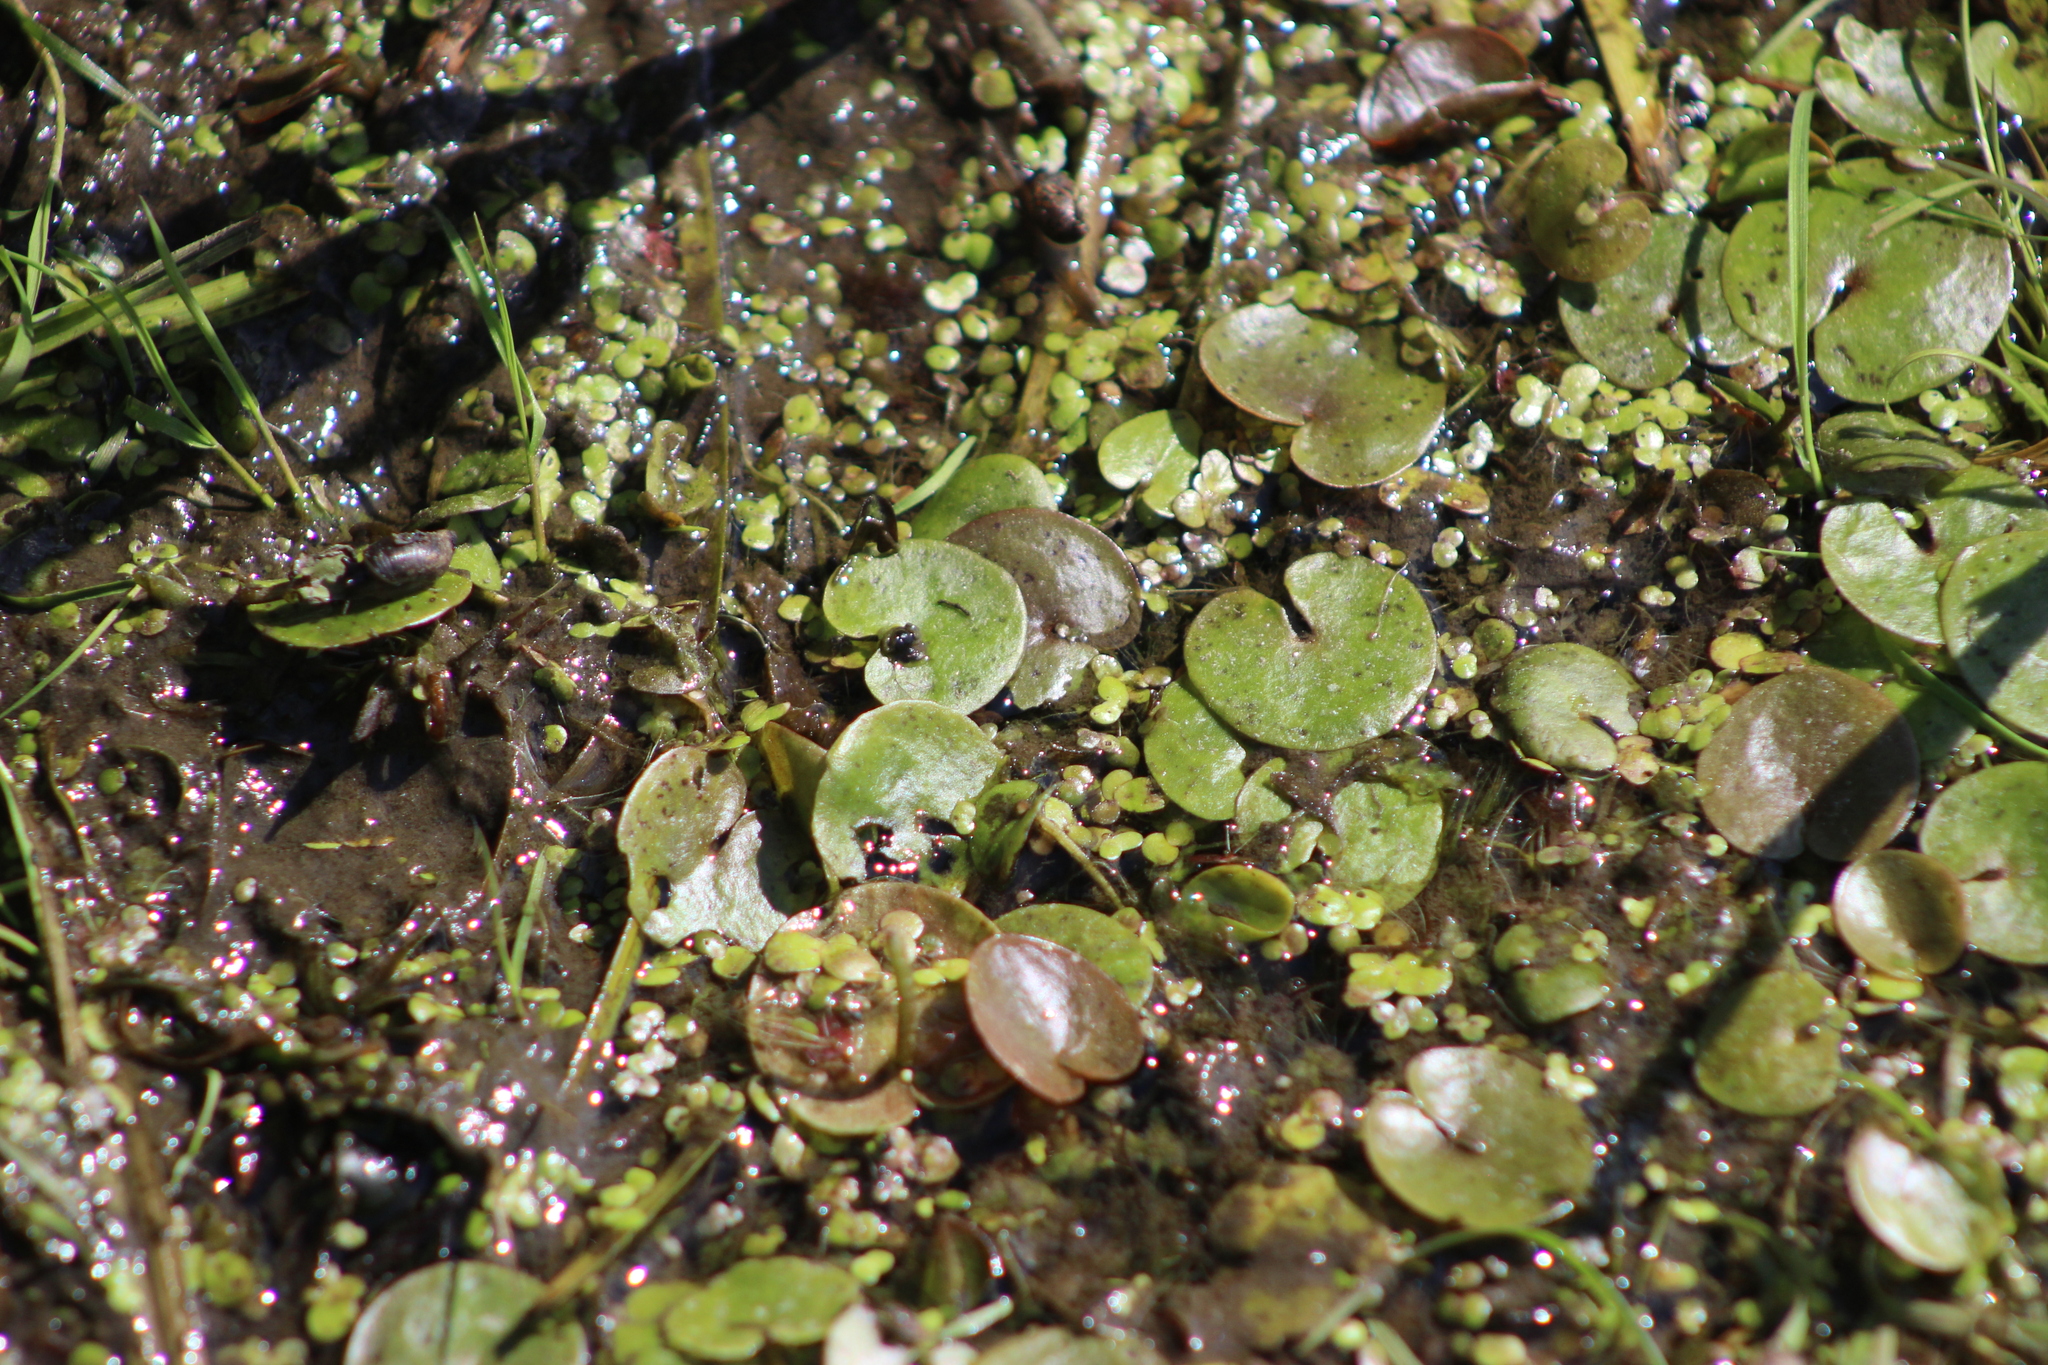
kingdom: Plantae
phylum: Tracheophyta
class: Liliopsida
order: Alismatales
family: Hydrocharitaceae
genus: Hydrocharis
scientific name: Hydrocharis morsus-ranae
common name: Frogbit
